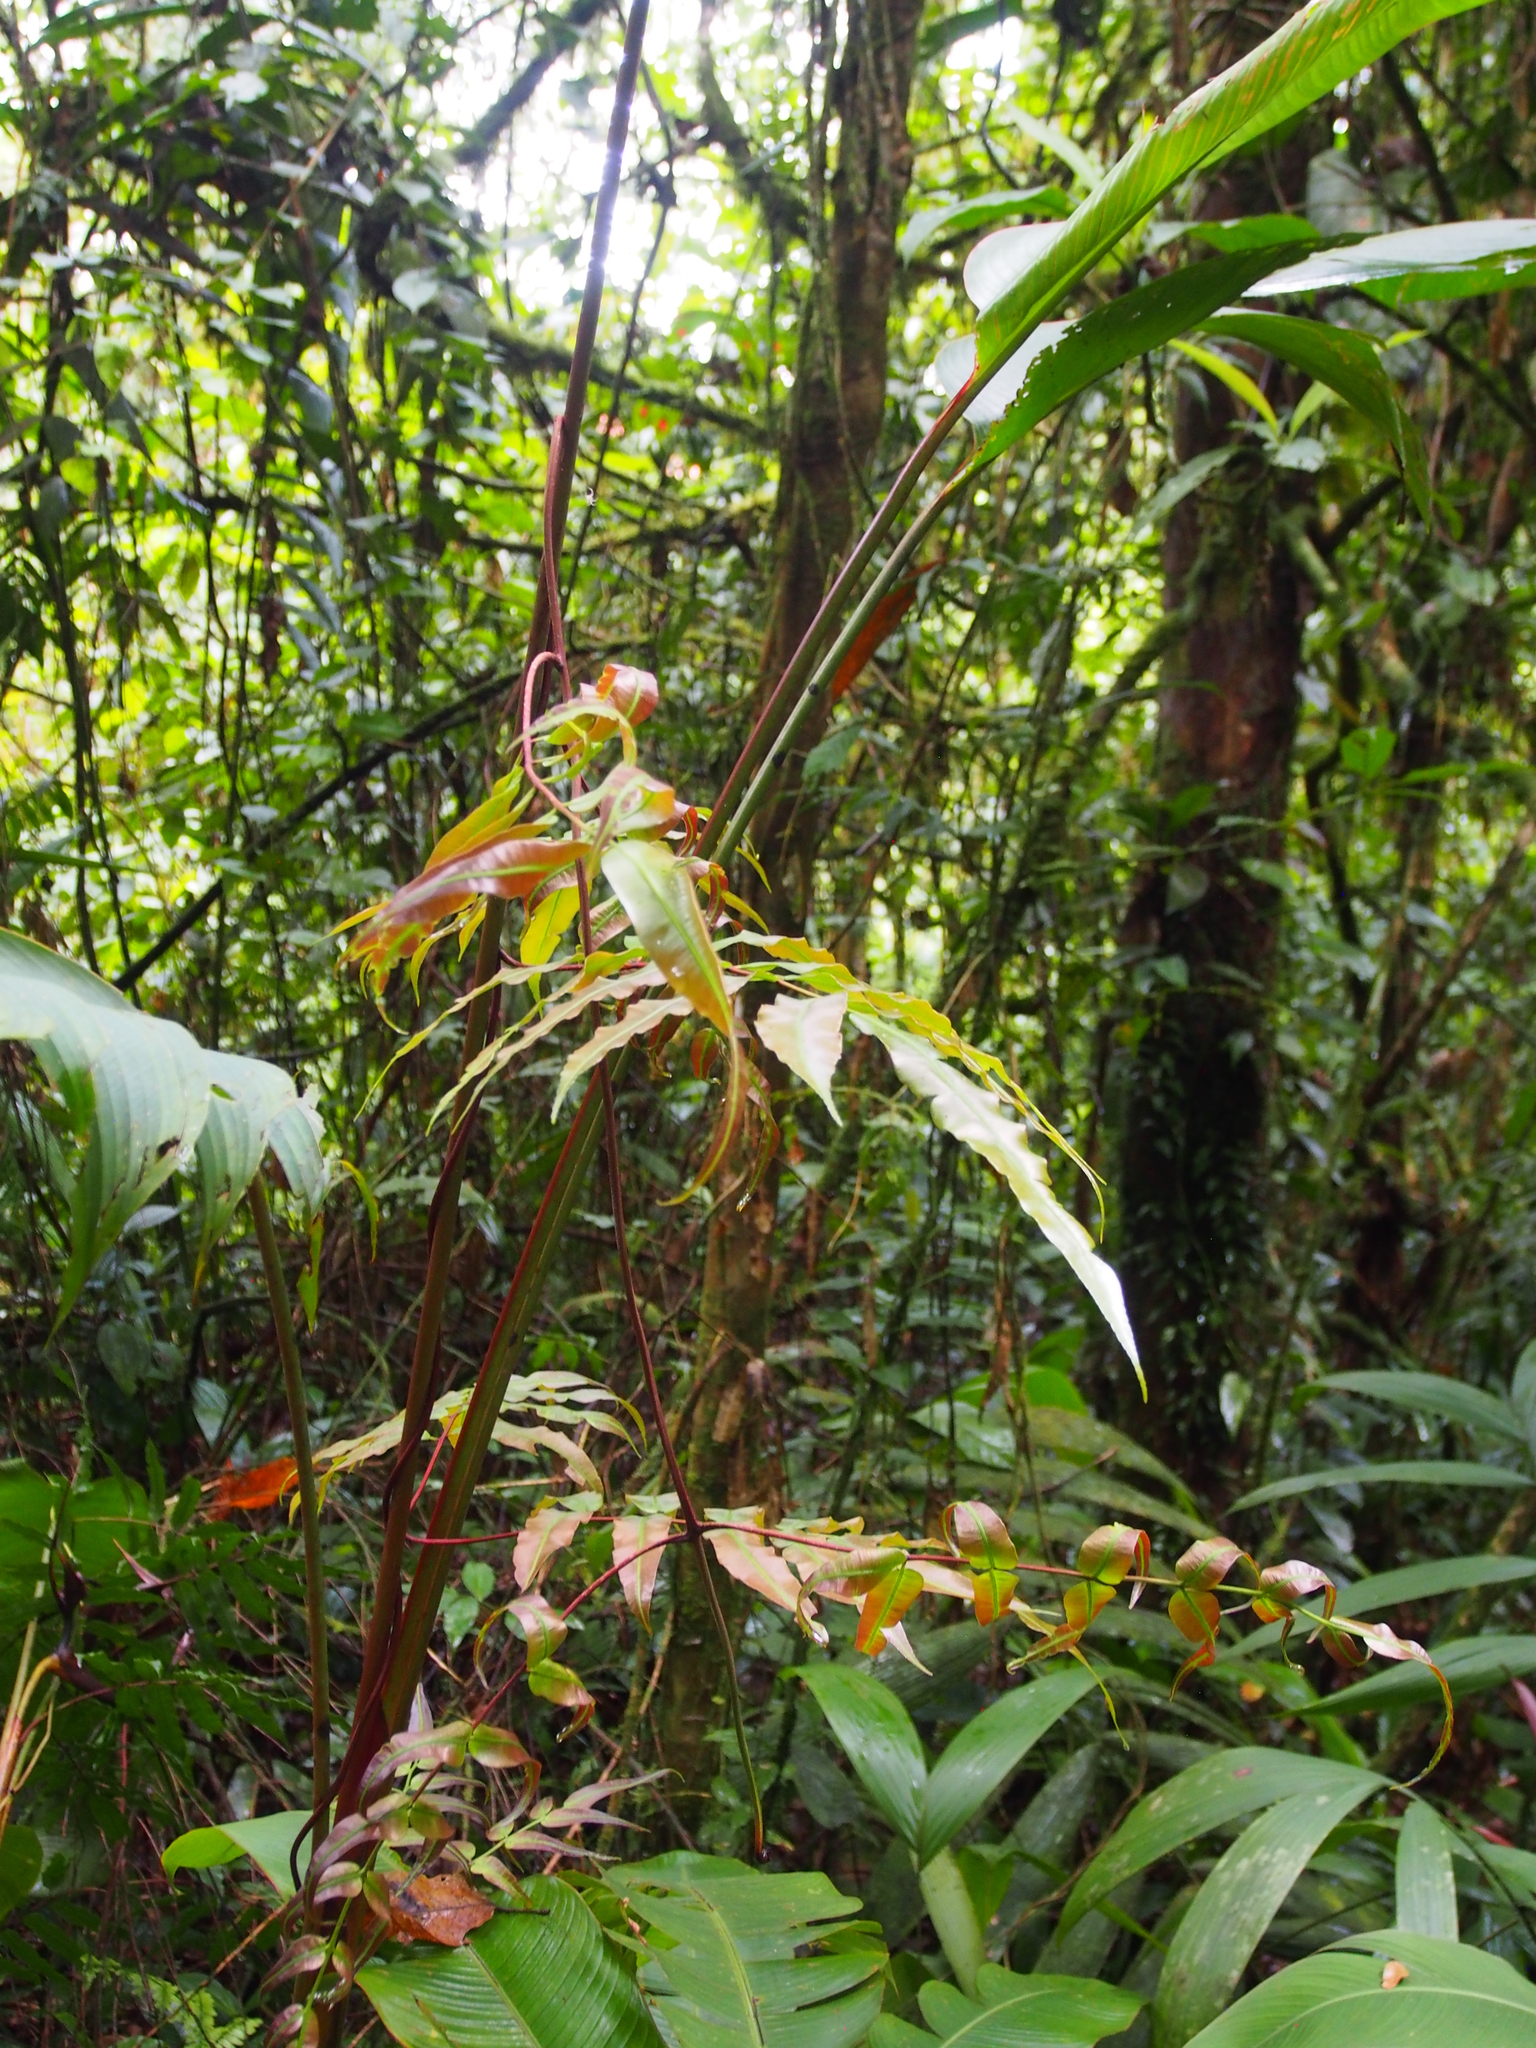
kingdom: Plantae
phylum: Tracheophyta
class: Polypodiopsida
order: Polypodiales
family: Blechnaceae
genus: Salpichlaena
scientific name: Salpichlaena papyrus
